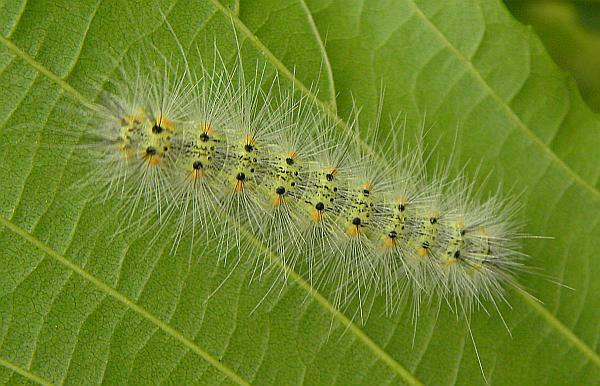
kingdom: Animalia
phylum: Arthropoda
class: Insecta
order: Lepidoptera
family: Erebidae
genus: Hyphantria
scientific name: Hyphantria cunea
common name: American white moth
